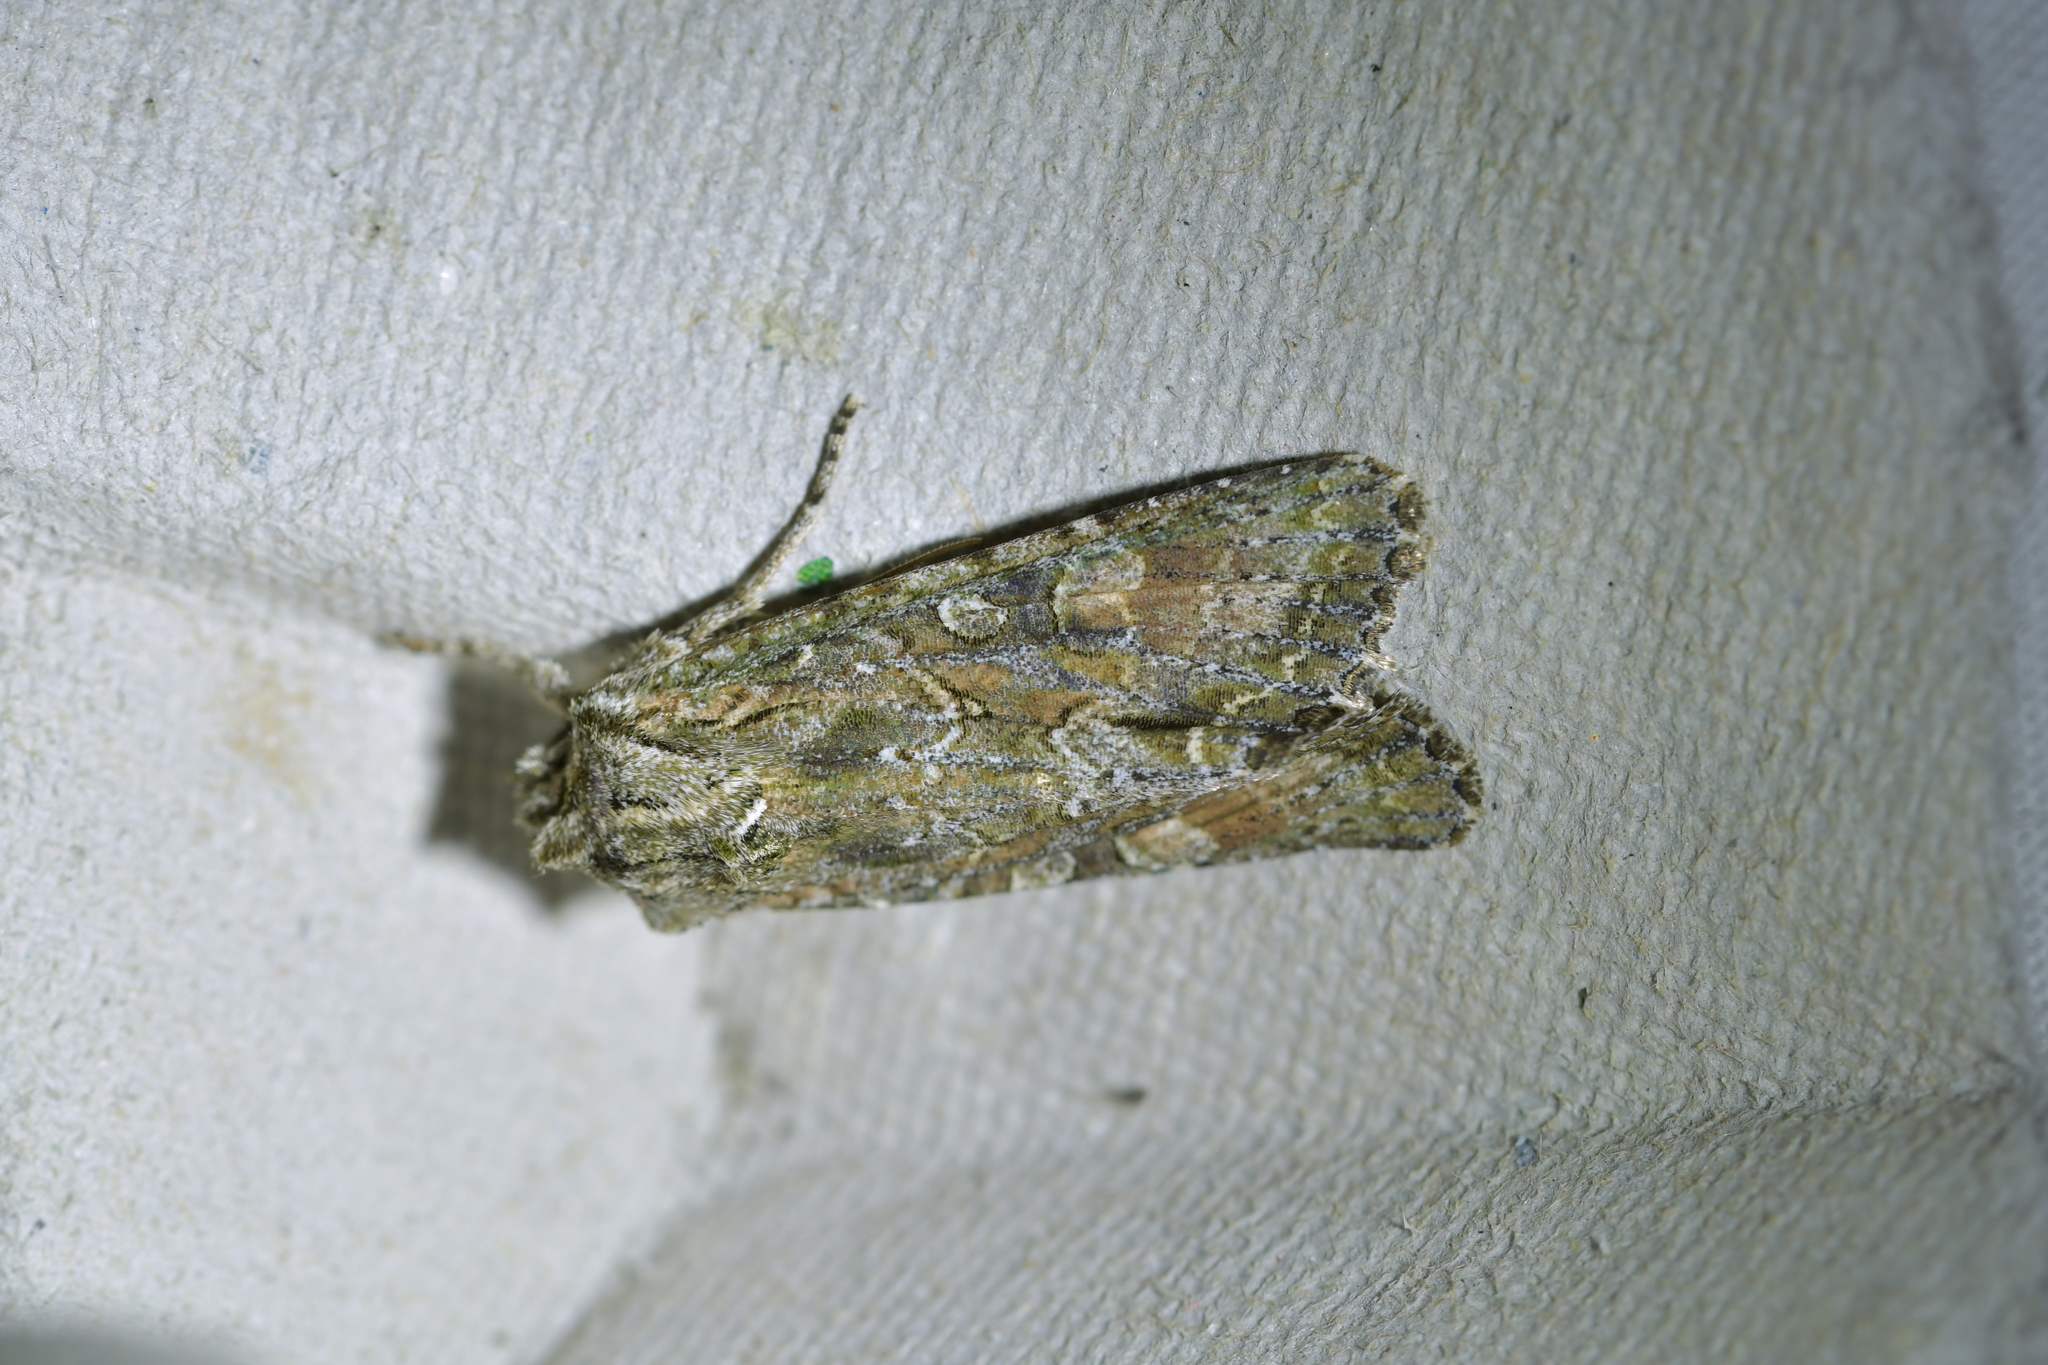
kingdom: Animalia
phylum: Arthropoda
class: Insecta
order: Lepidoptera
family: Noctuidae
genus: Ichneutica
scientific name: Ichneutica mutans
